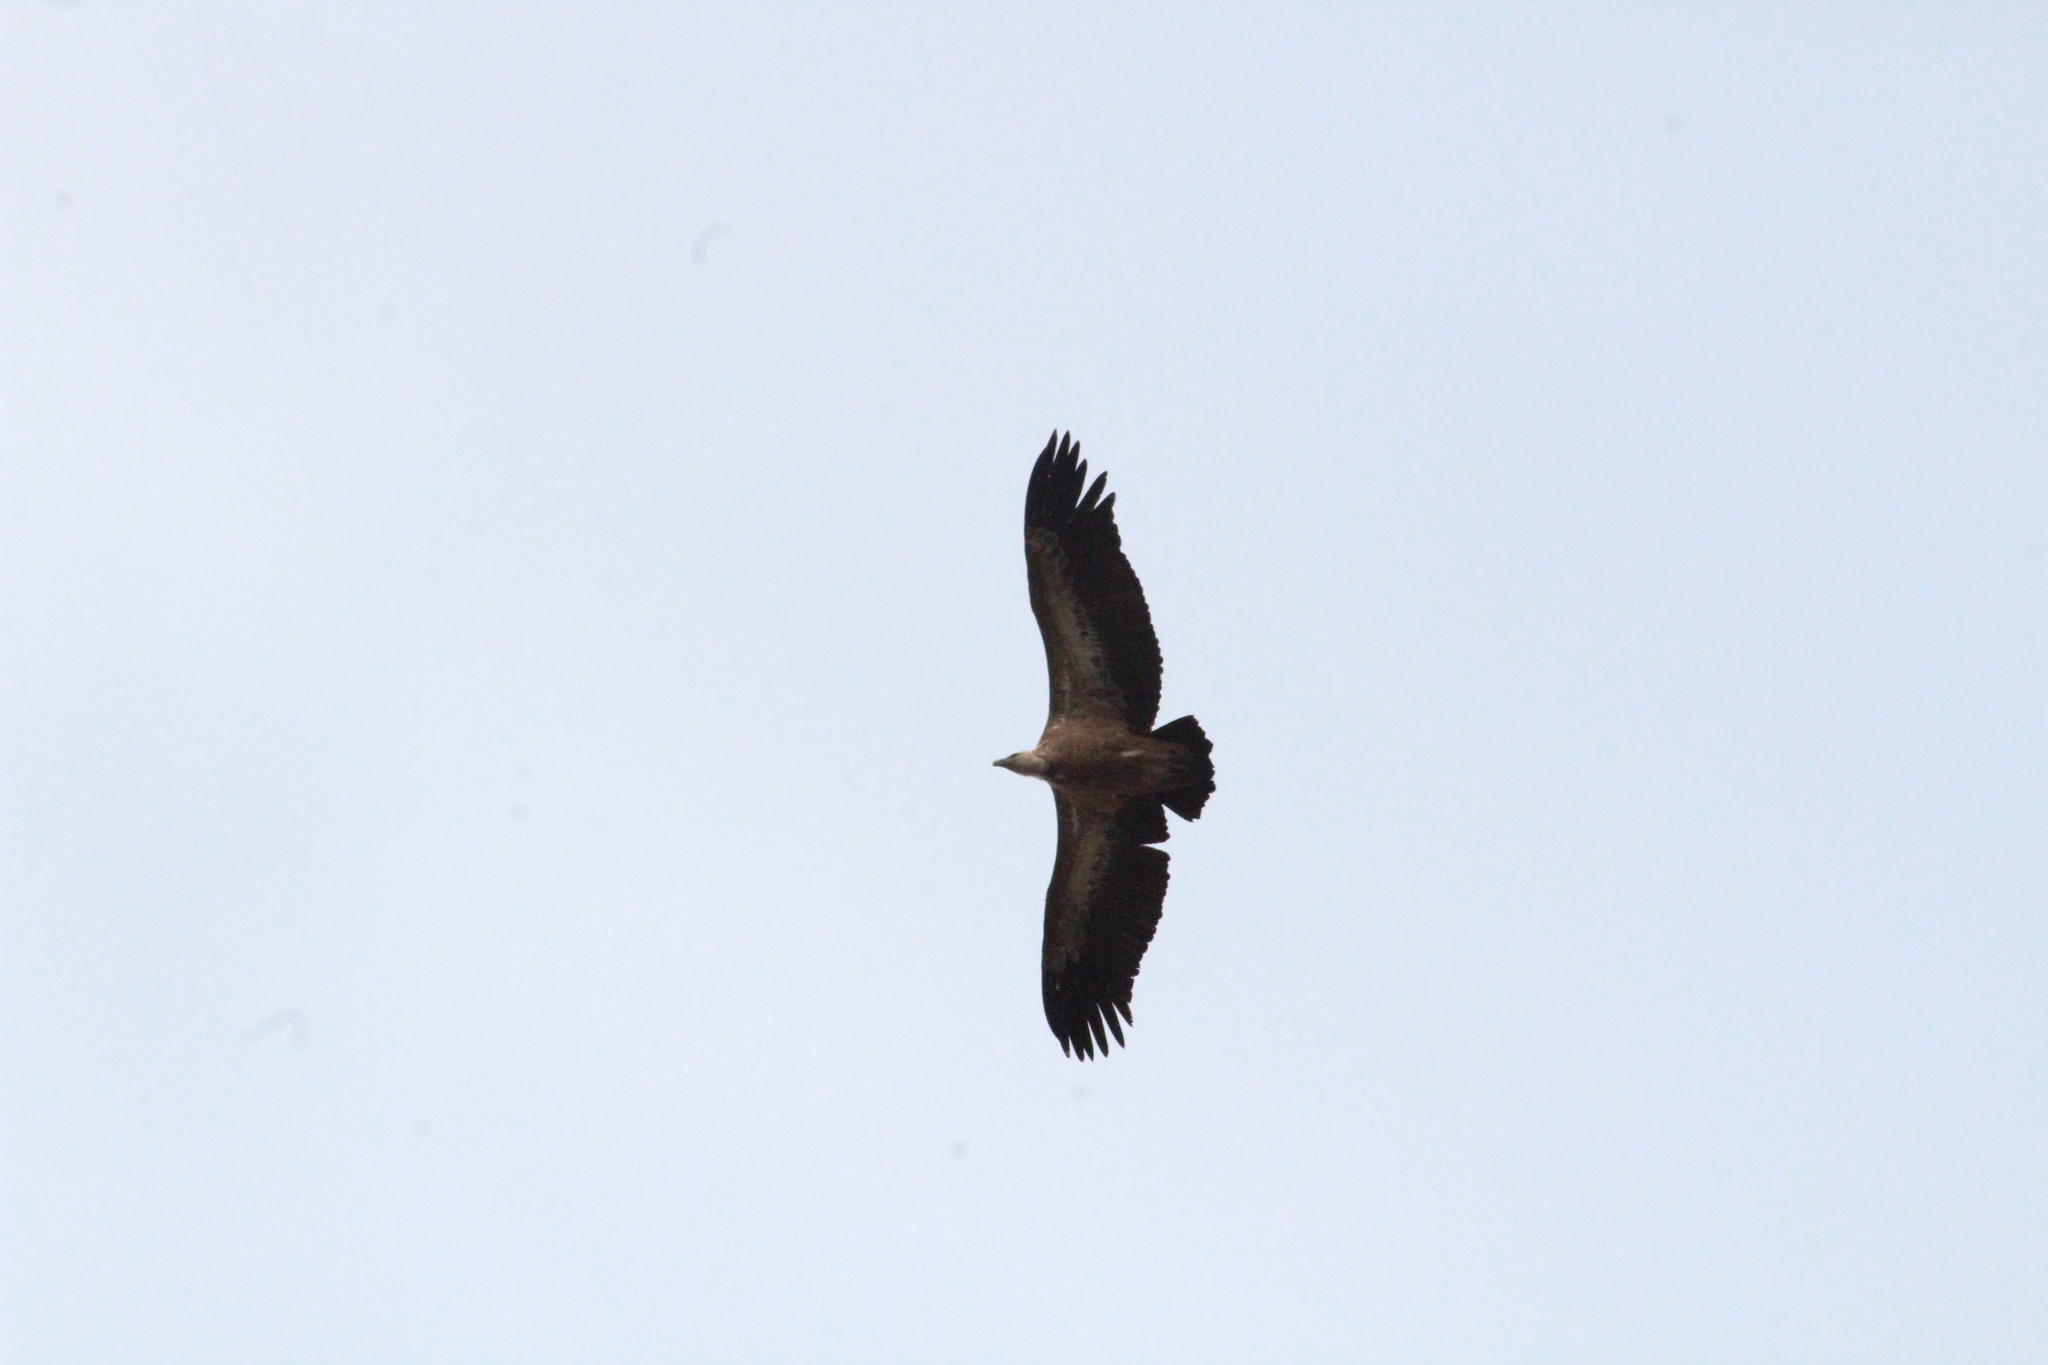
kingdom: Animalia
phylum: Chordata
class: Aves
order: Accipitriformes
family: Accipitridae
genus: Gyps
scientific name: Gyps fulvus
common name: Griffon vulture
